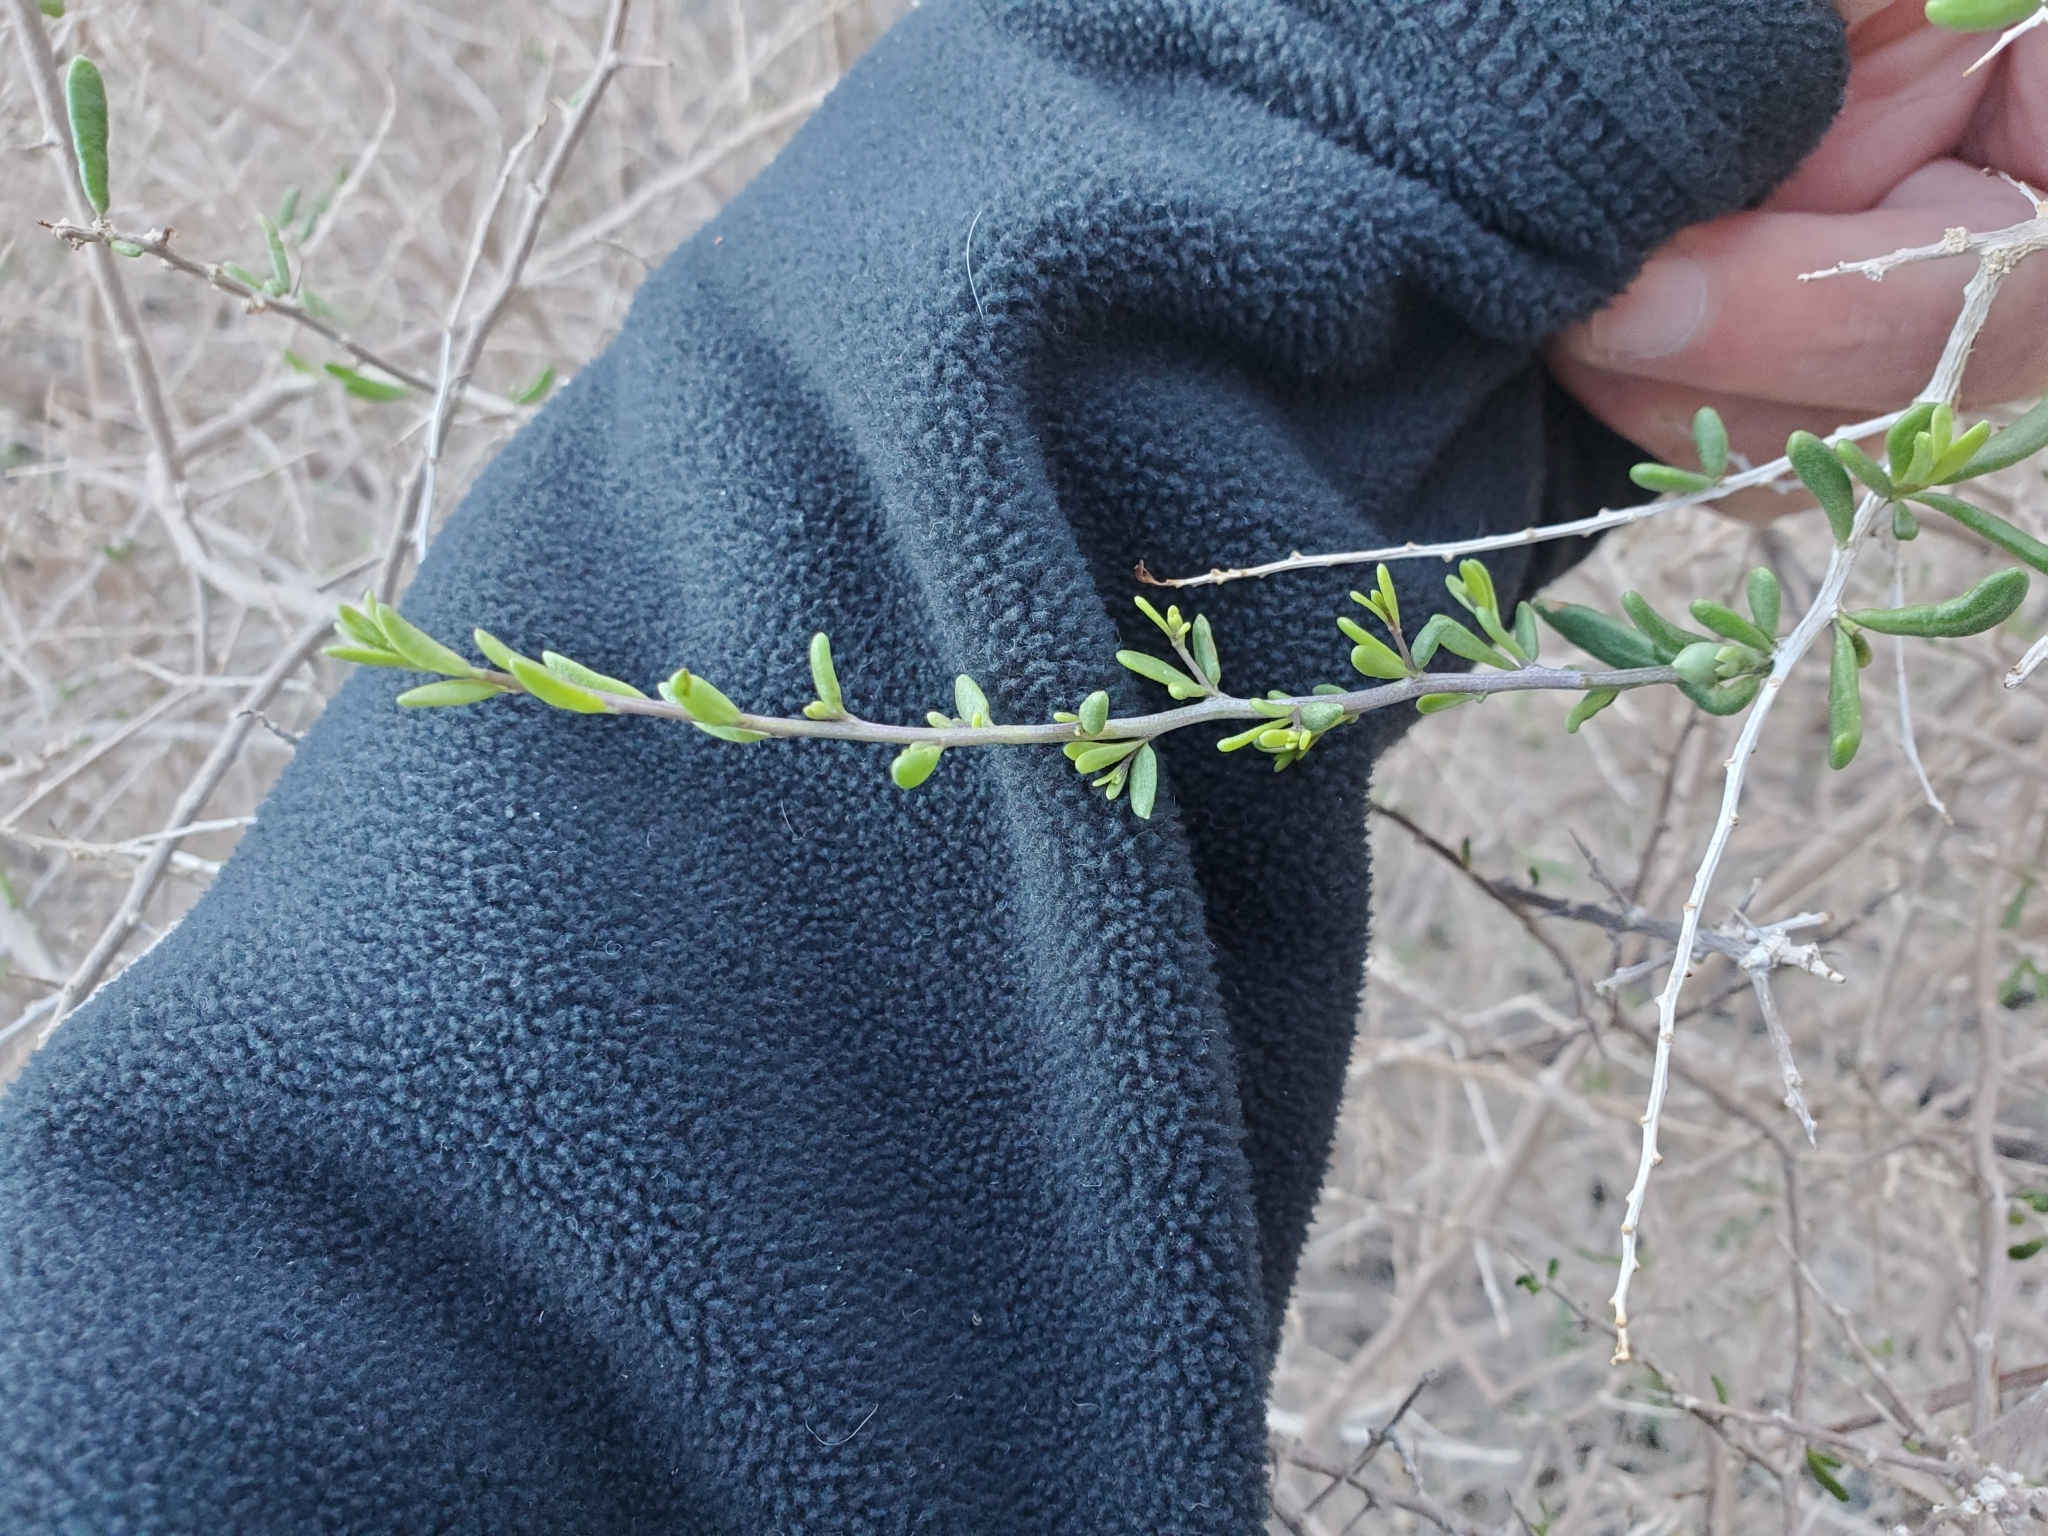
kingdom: Plantae
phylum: Tracheophyta
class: Magnoliopsida
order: Solanales
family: Solanaceae
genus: Lycium
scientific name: Lycium andersonii
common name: Water-jacket
